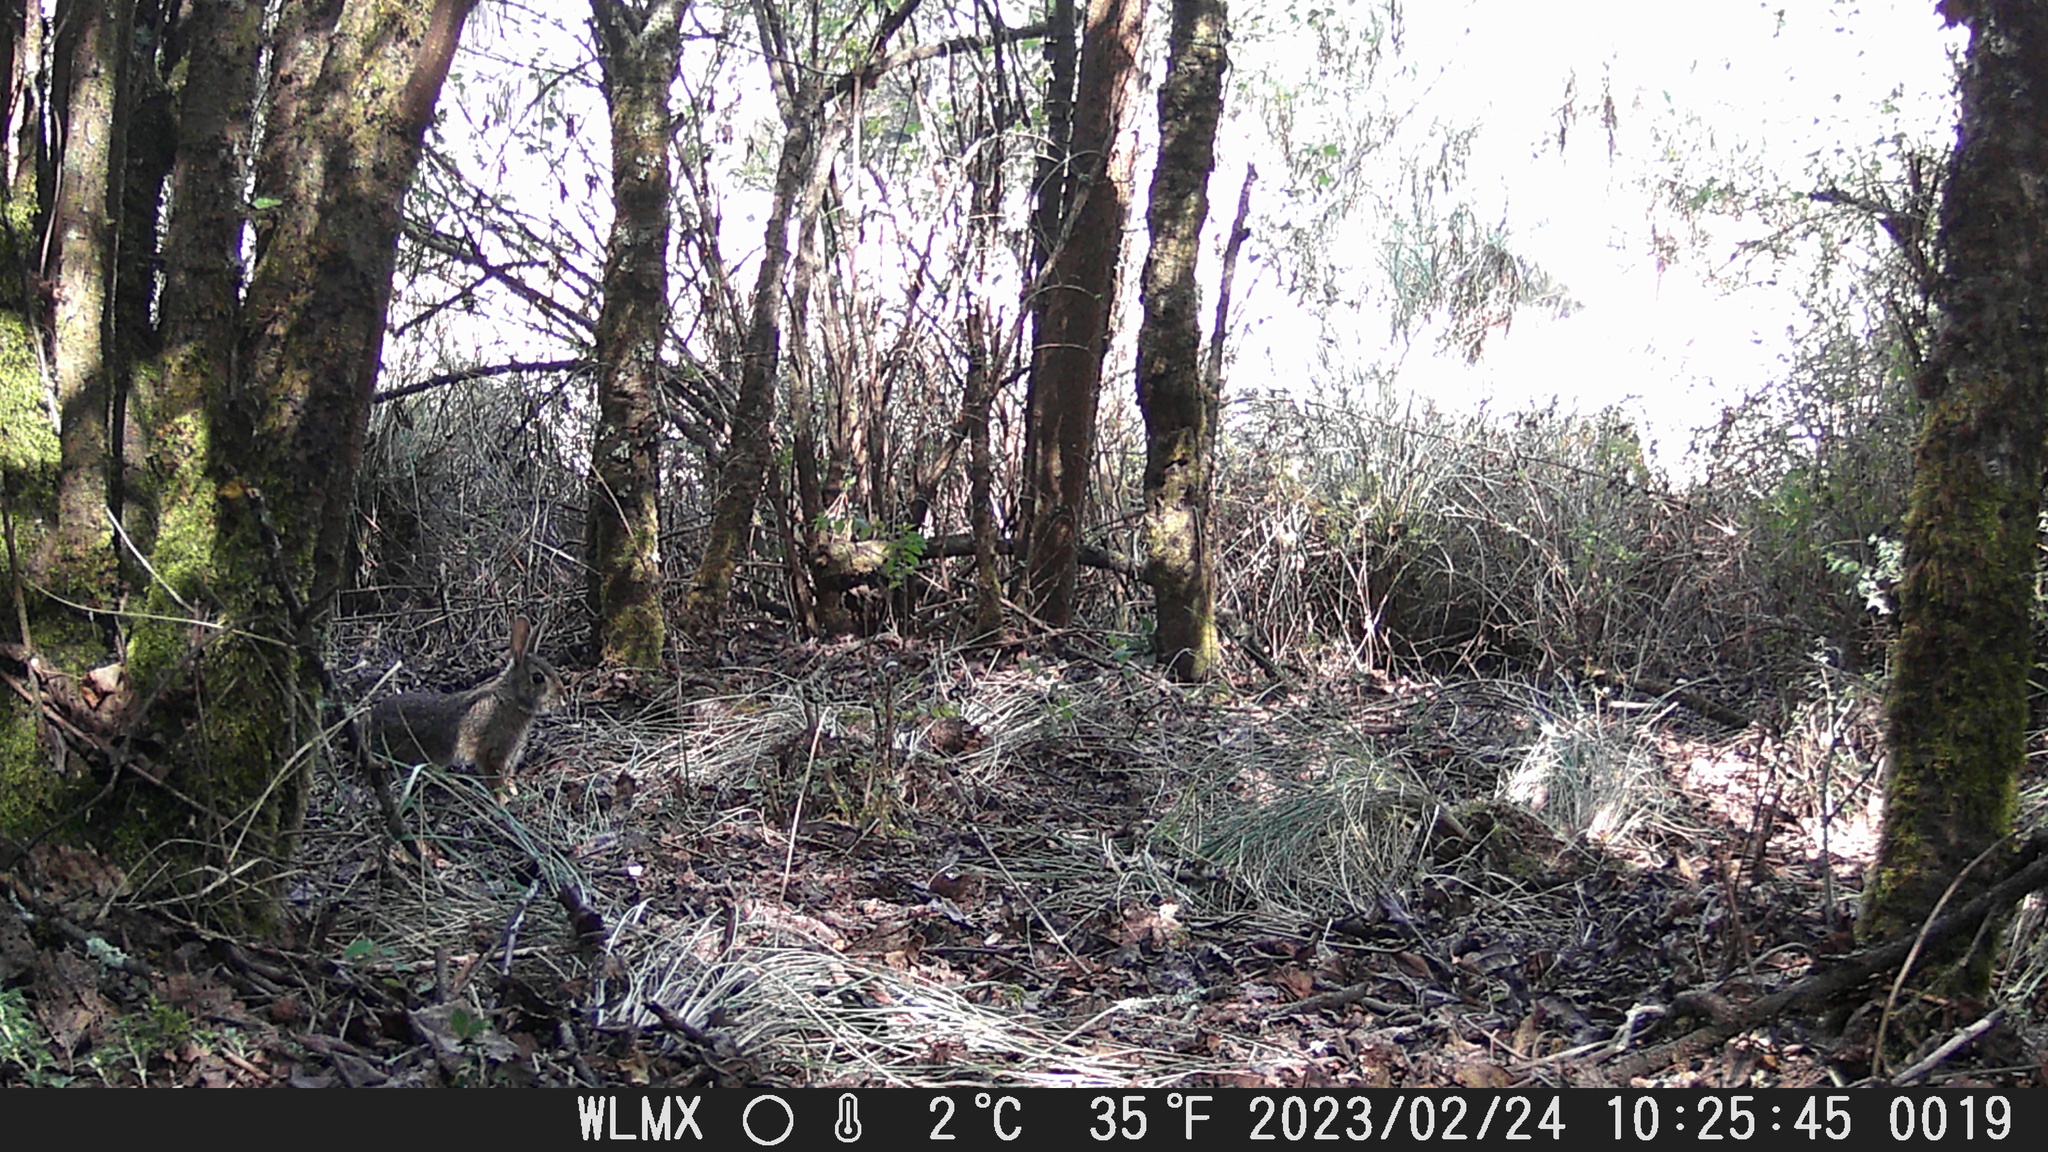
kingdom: Animalia
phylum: Chordata
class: Mammalia
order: Lagomorpha
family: Leporidae
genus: Sylvilagus
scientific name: Sylvilagus floridanus
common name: Eastern cottontail
